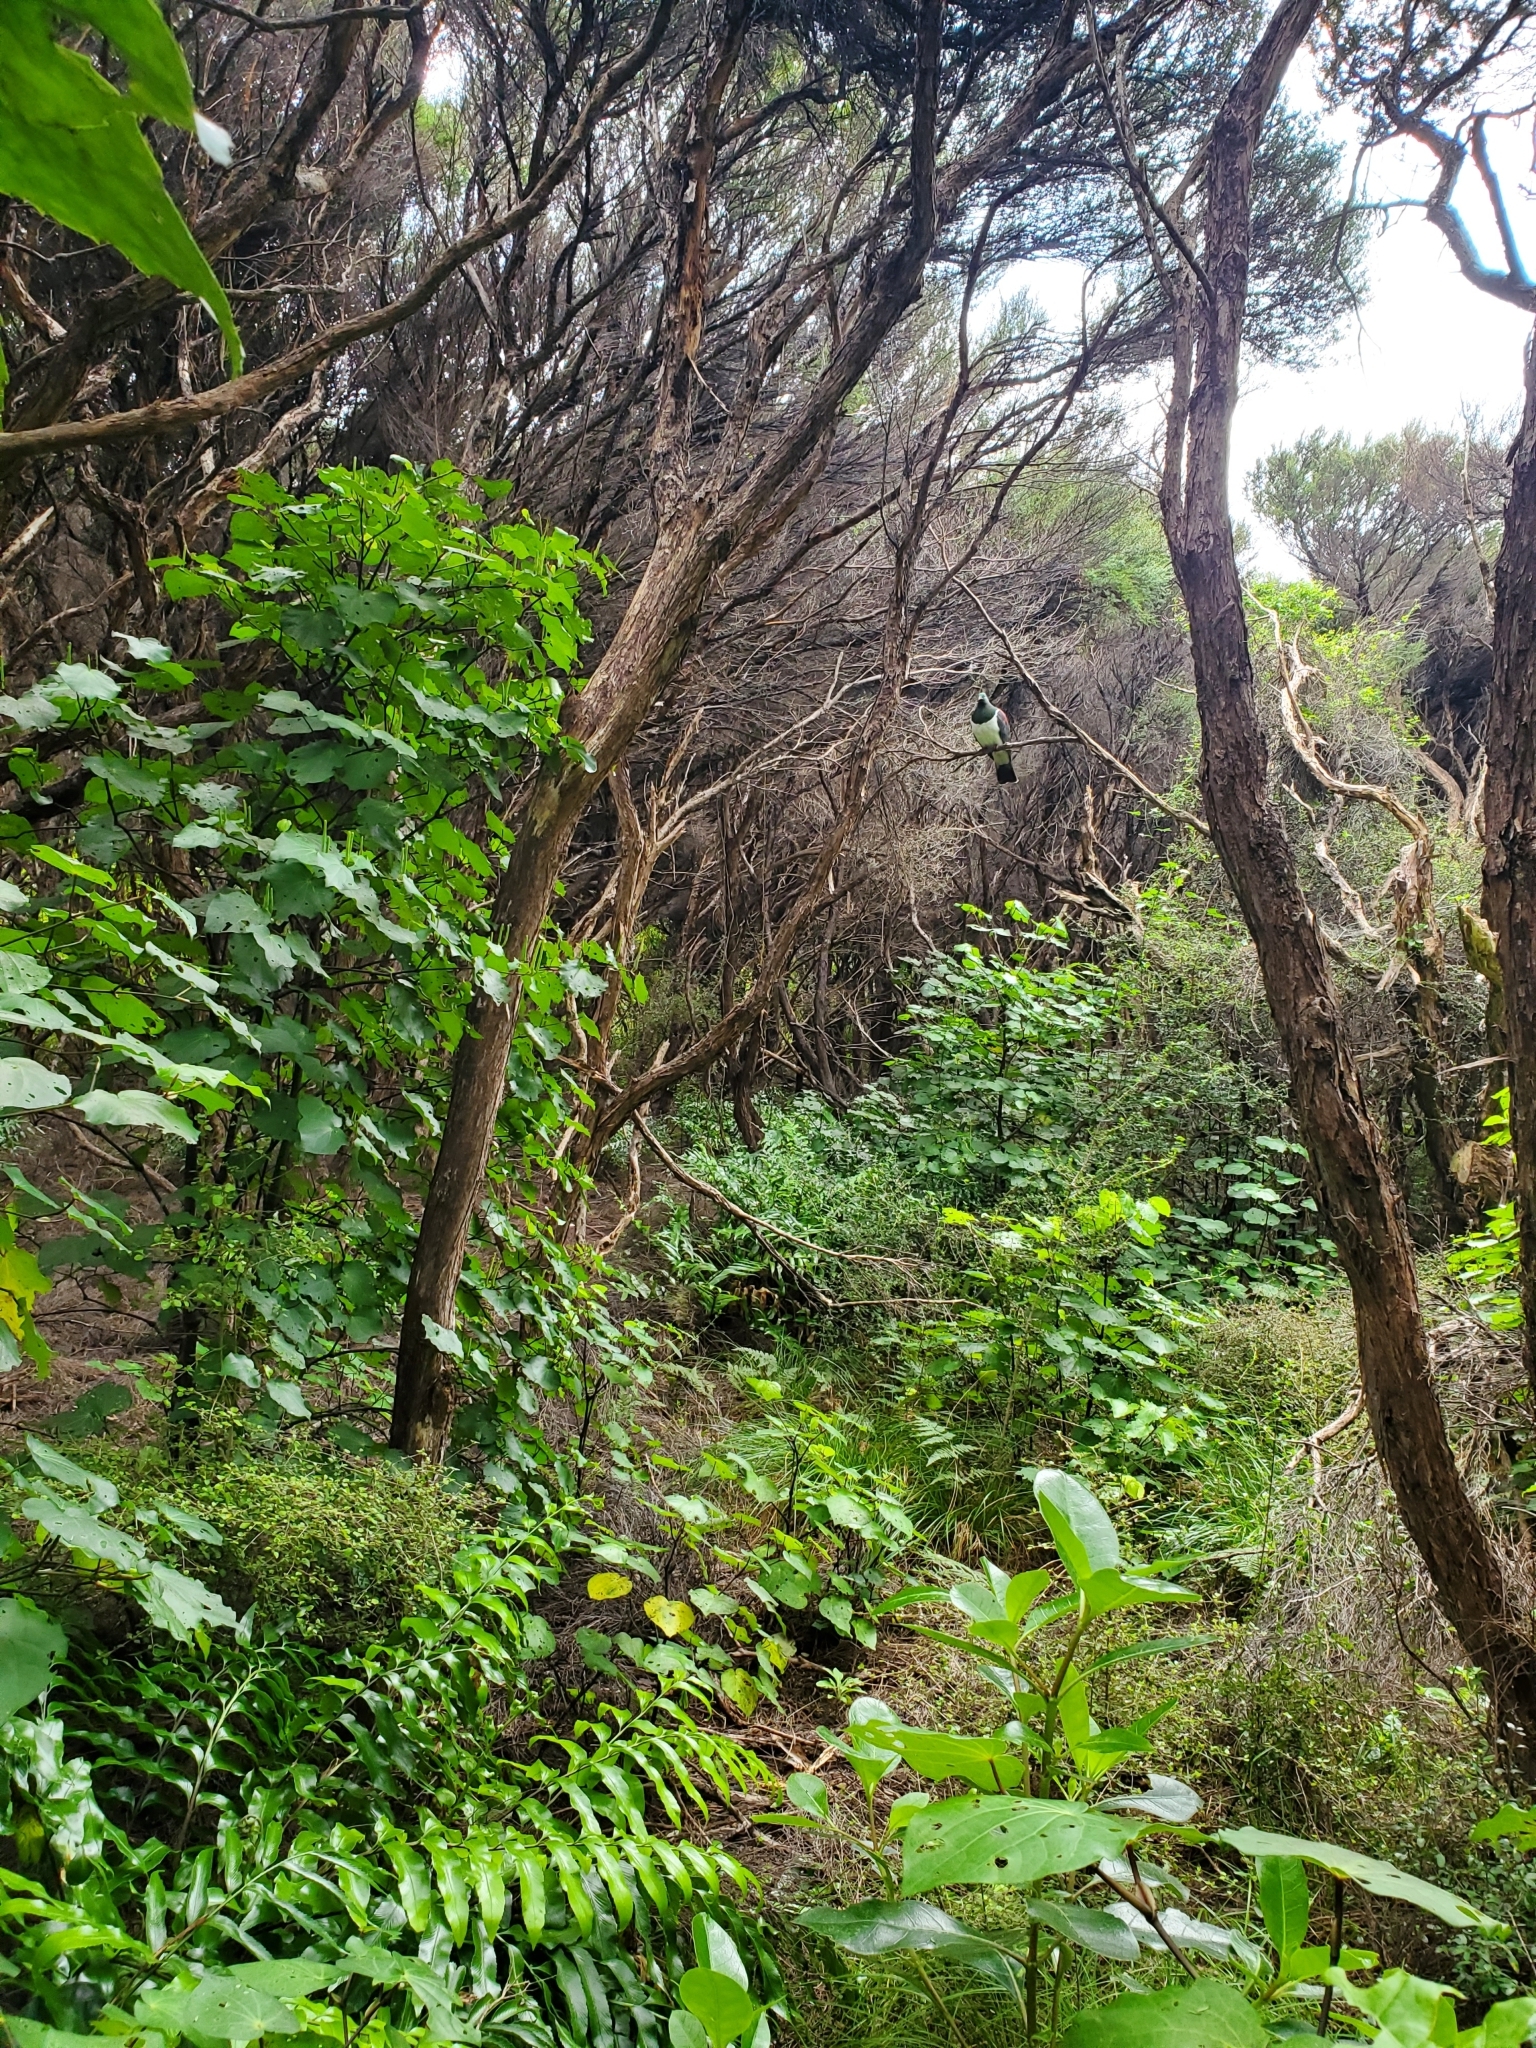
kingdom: Animalia
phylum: Chordata
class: Aves
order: Columbiformes
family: Columbidae
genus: Hemiphaga
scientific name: Hemiphaga novaeseelandiae
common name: New zealand pigeon
